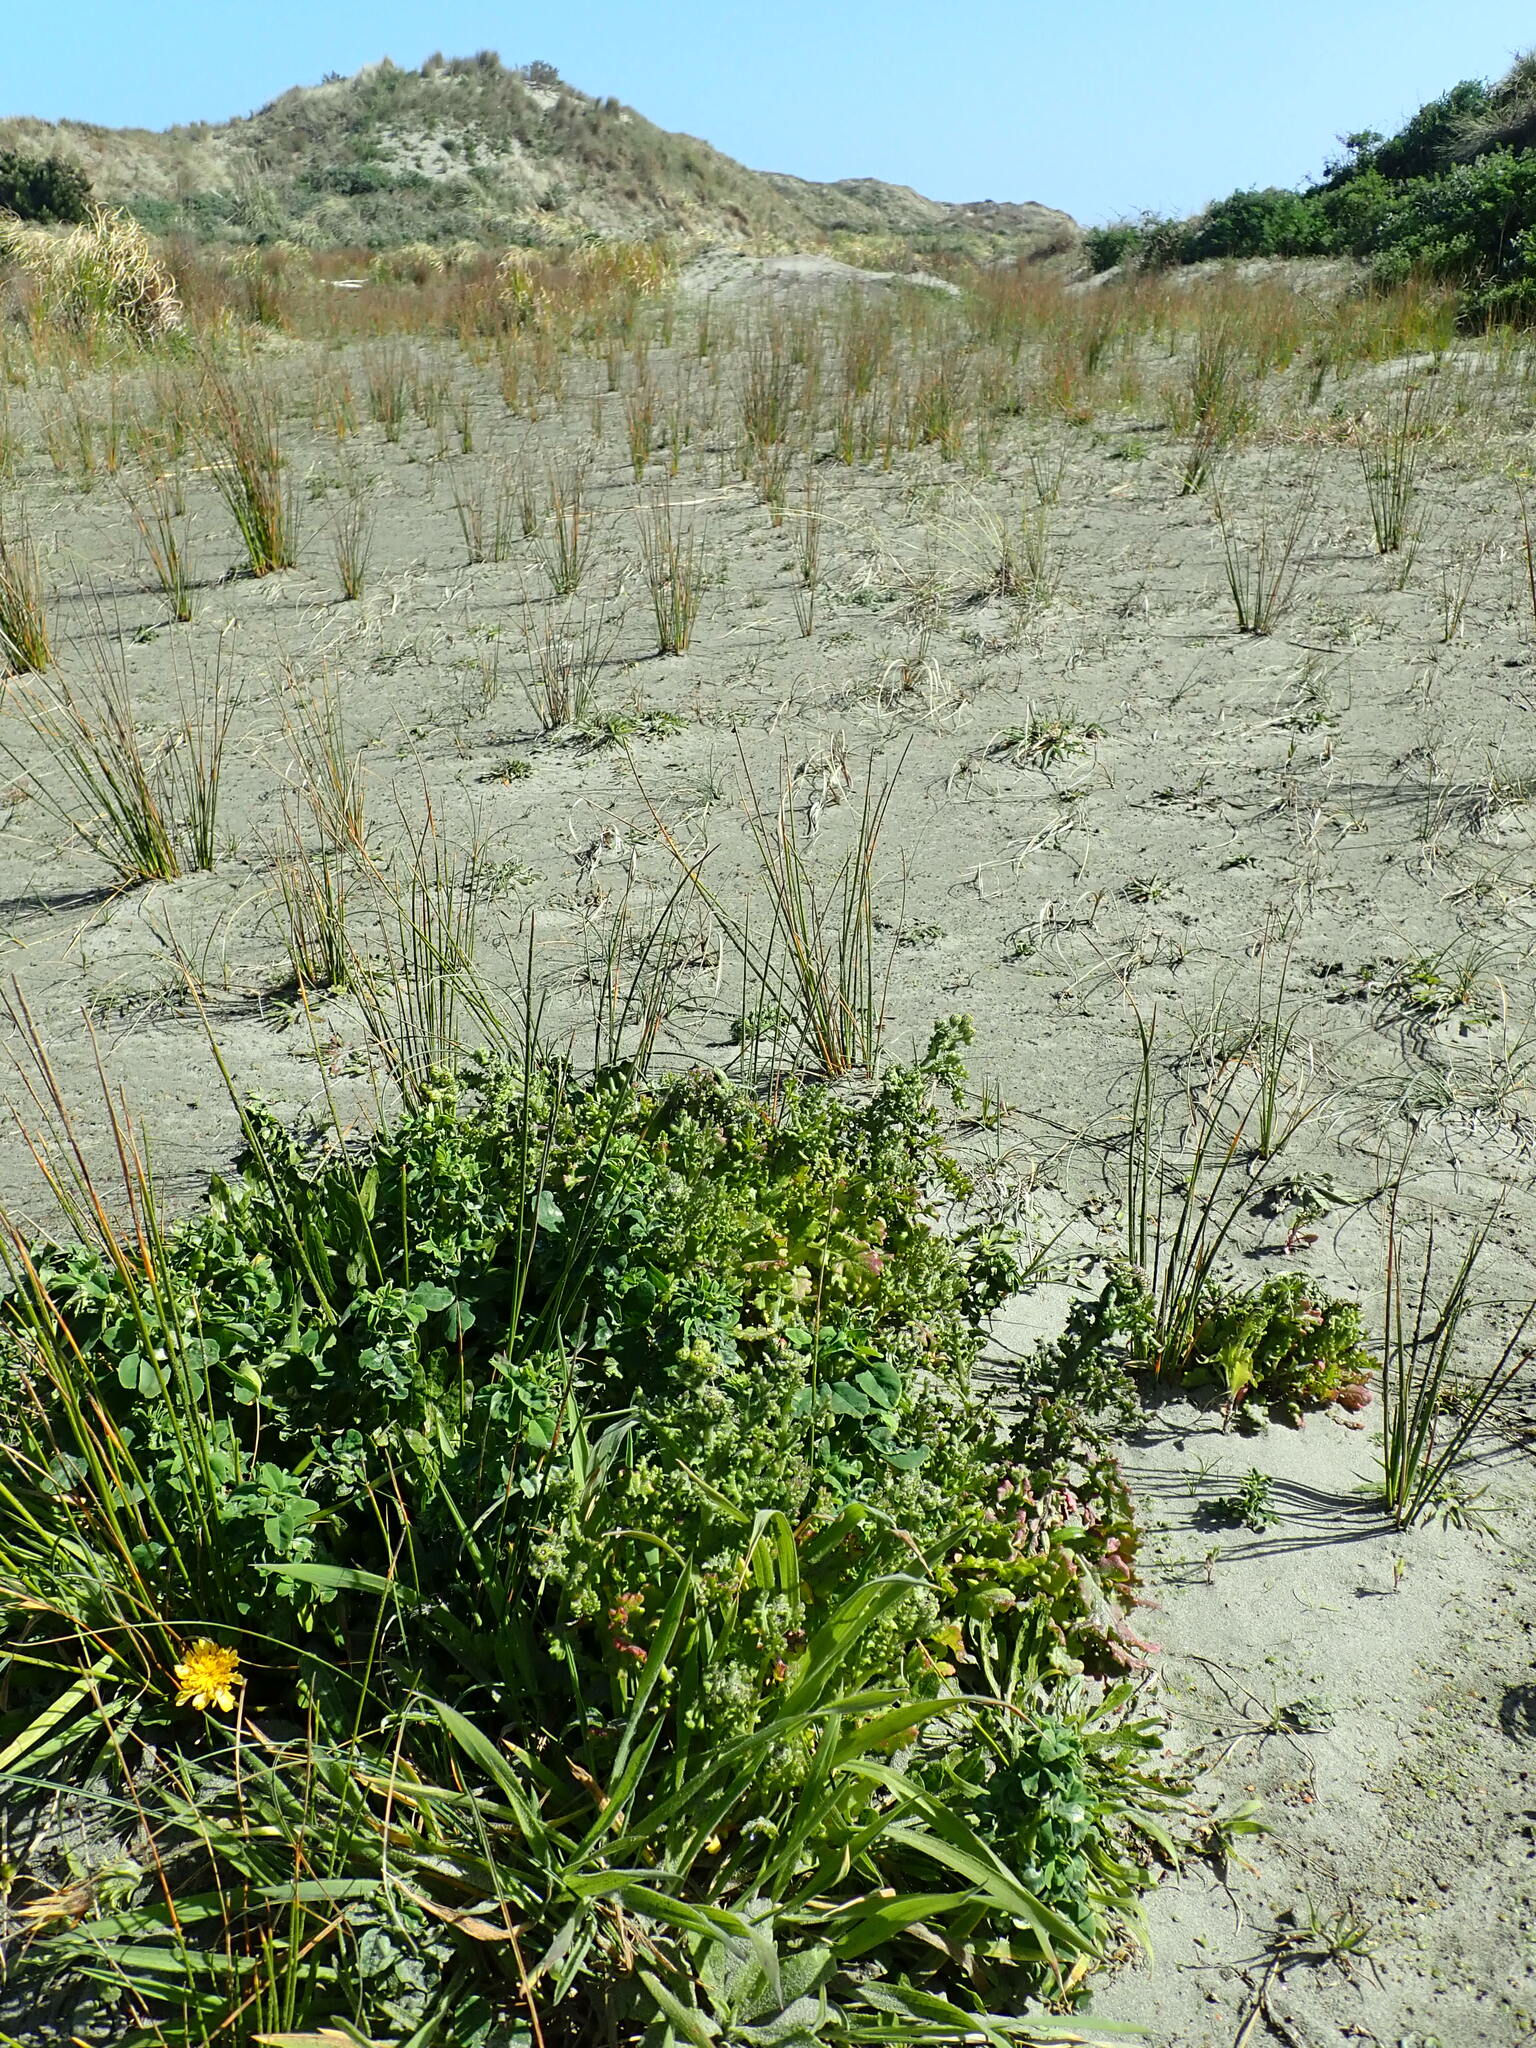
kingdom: Plantae
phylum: Tracheophyta
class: Magnoliopsida
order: Asterales
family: Asteraceae
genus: Senecio
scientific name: Senecio elegans
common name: Purple groundsel
